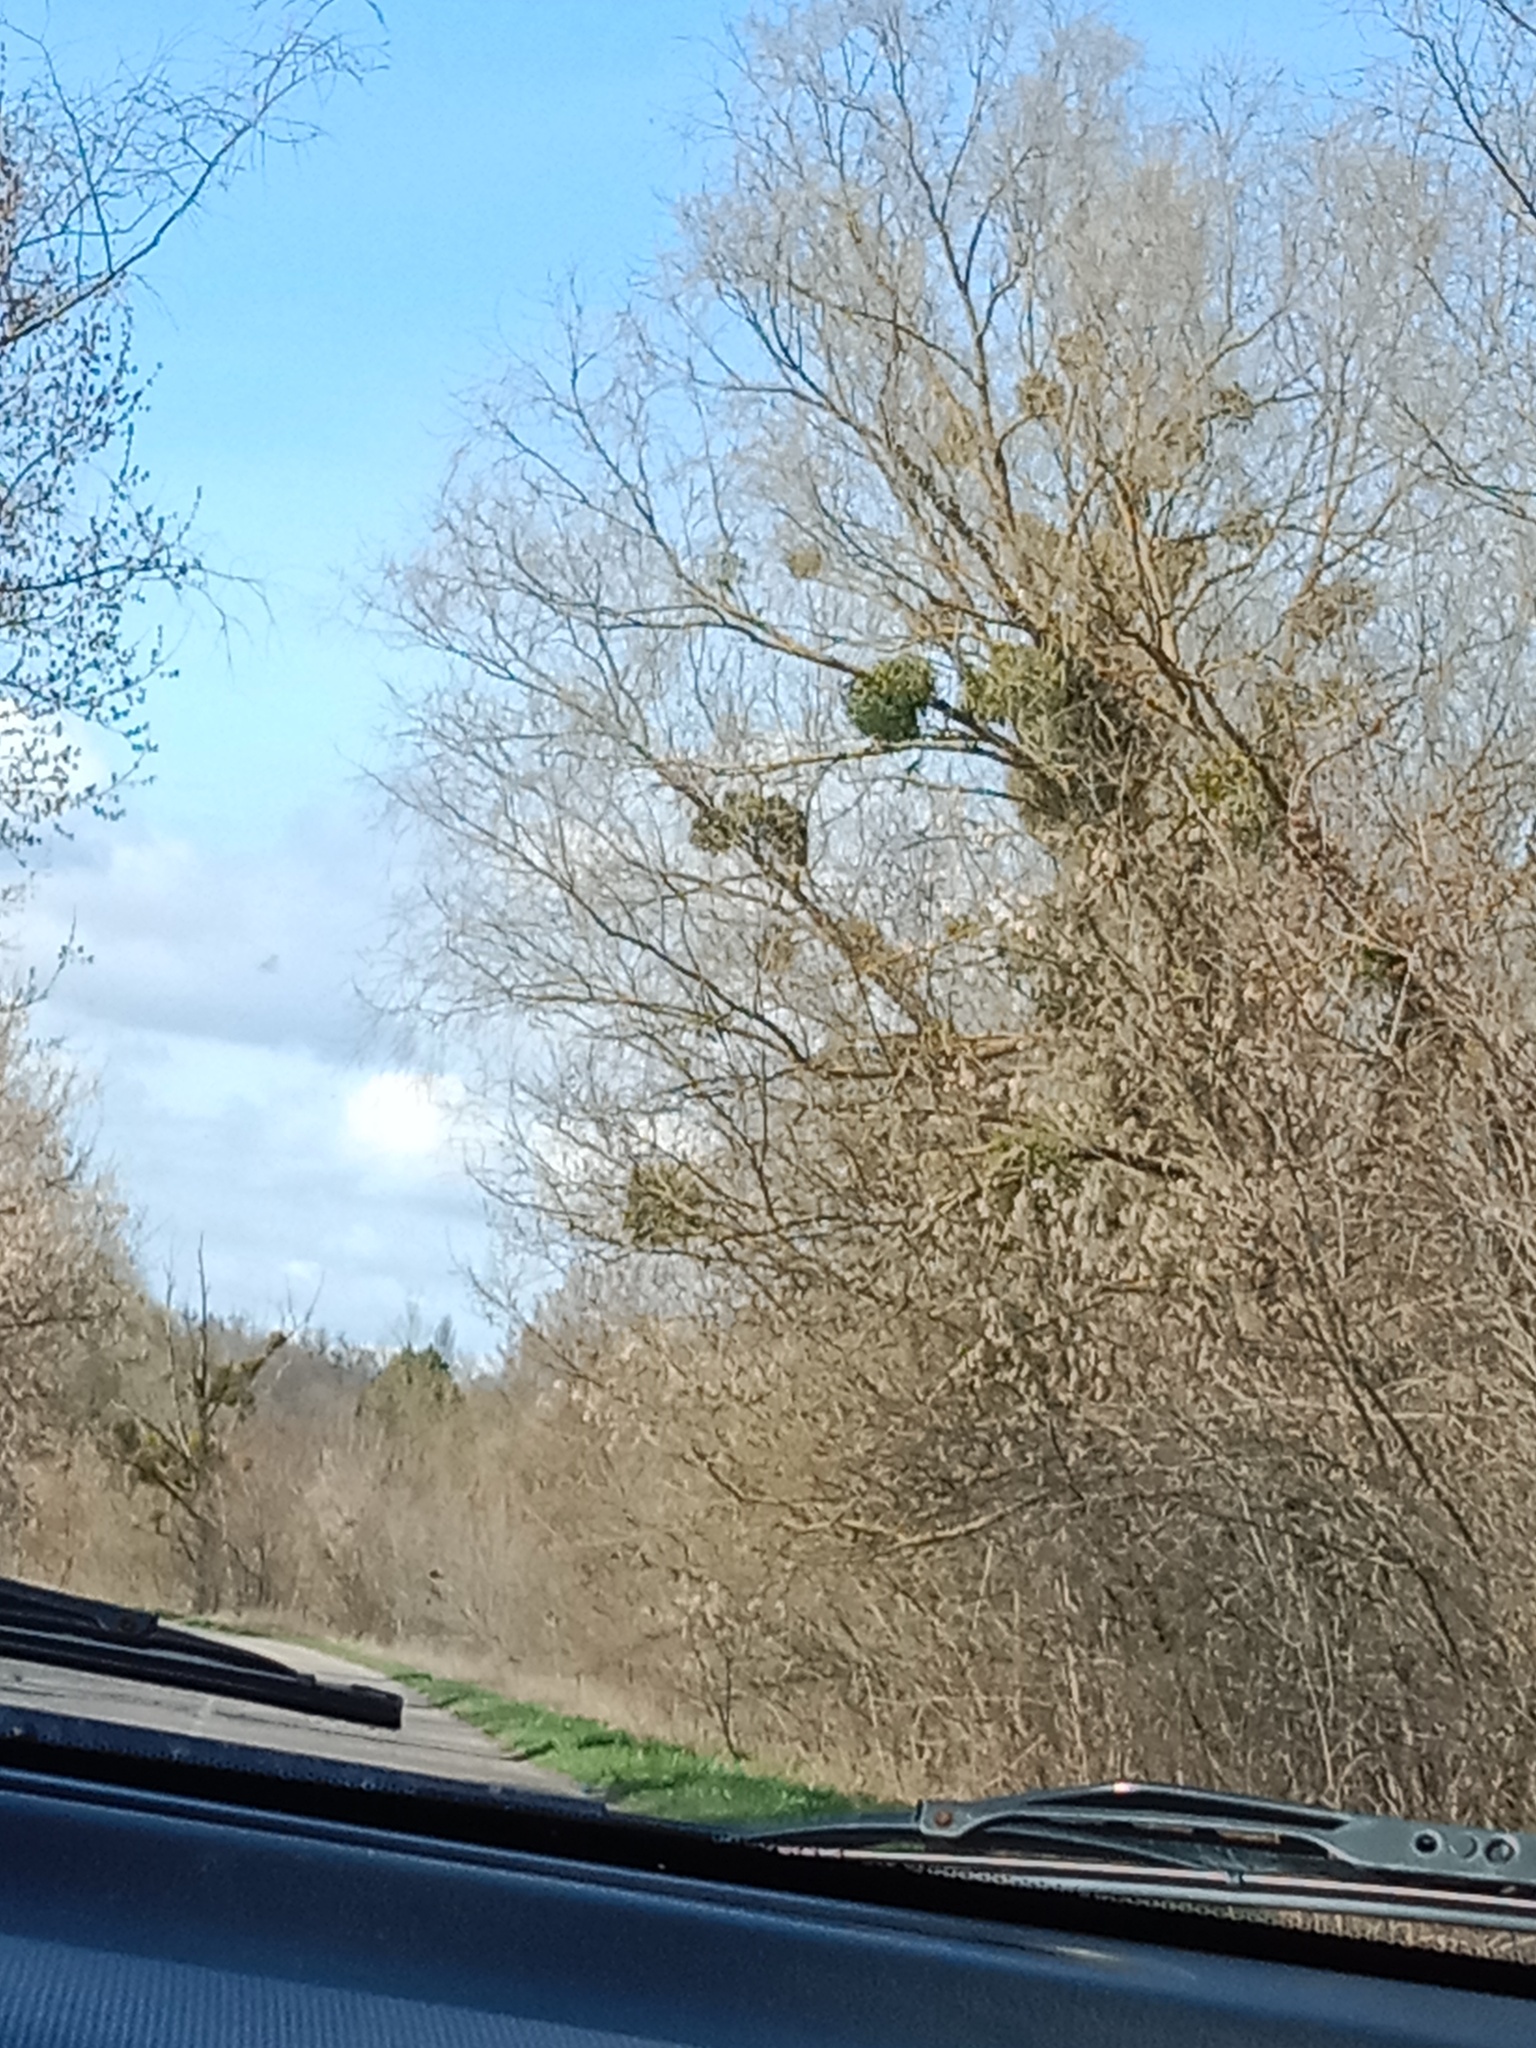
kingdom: Plantae
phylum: Tracheophyta
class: Magnoliopsida
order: Santalales
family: Viscaceae
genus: Viscum
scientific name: Viscum album
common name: Mistletoe
